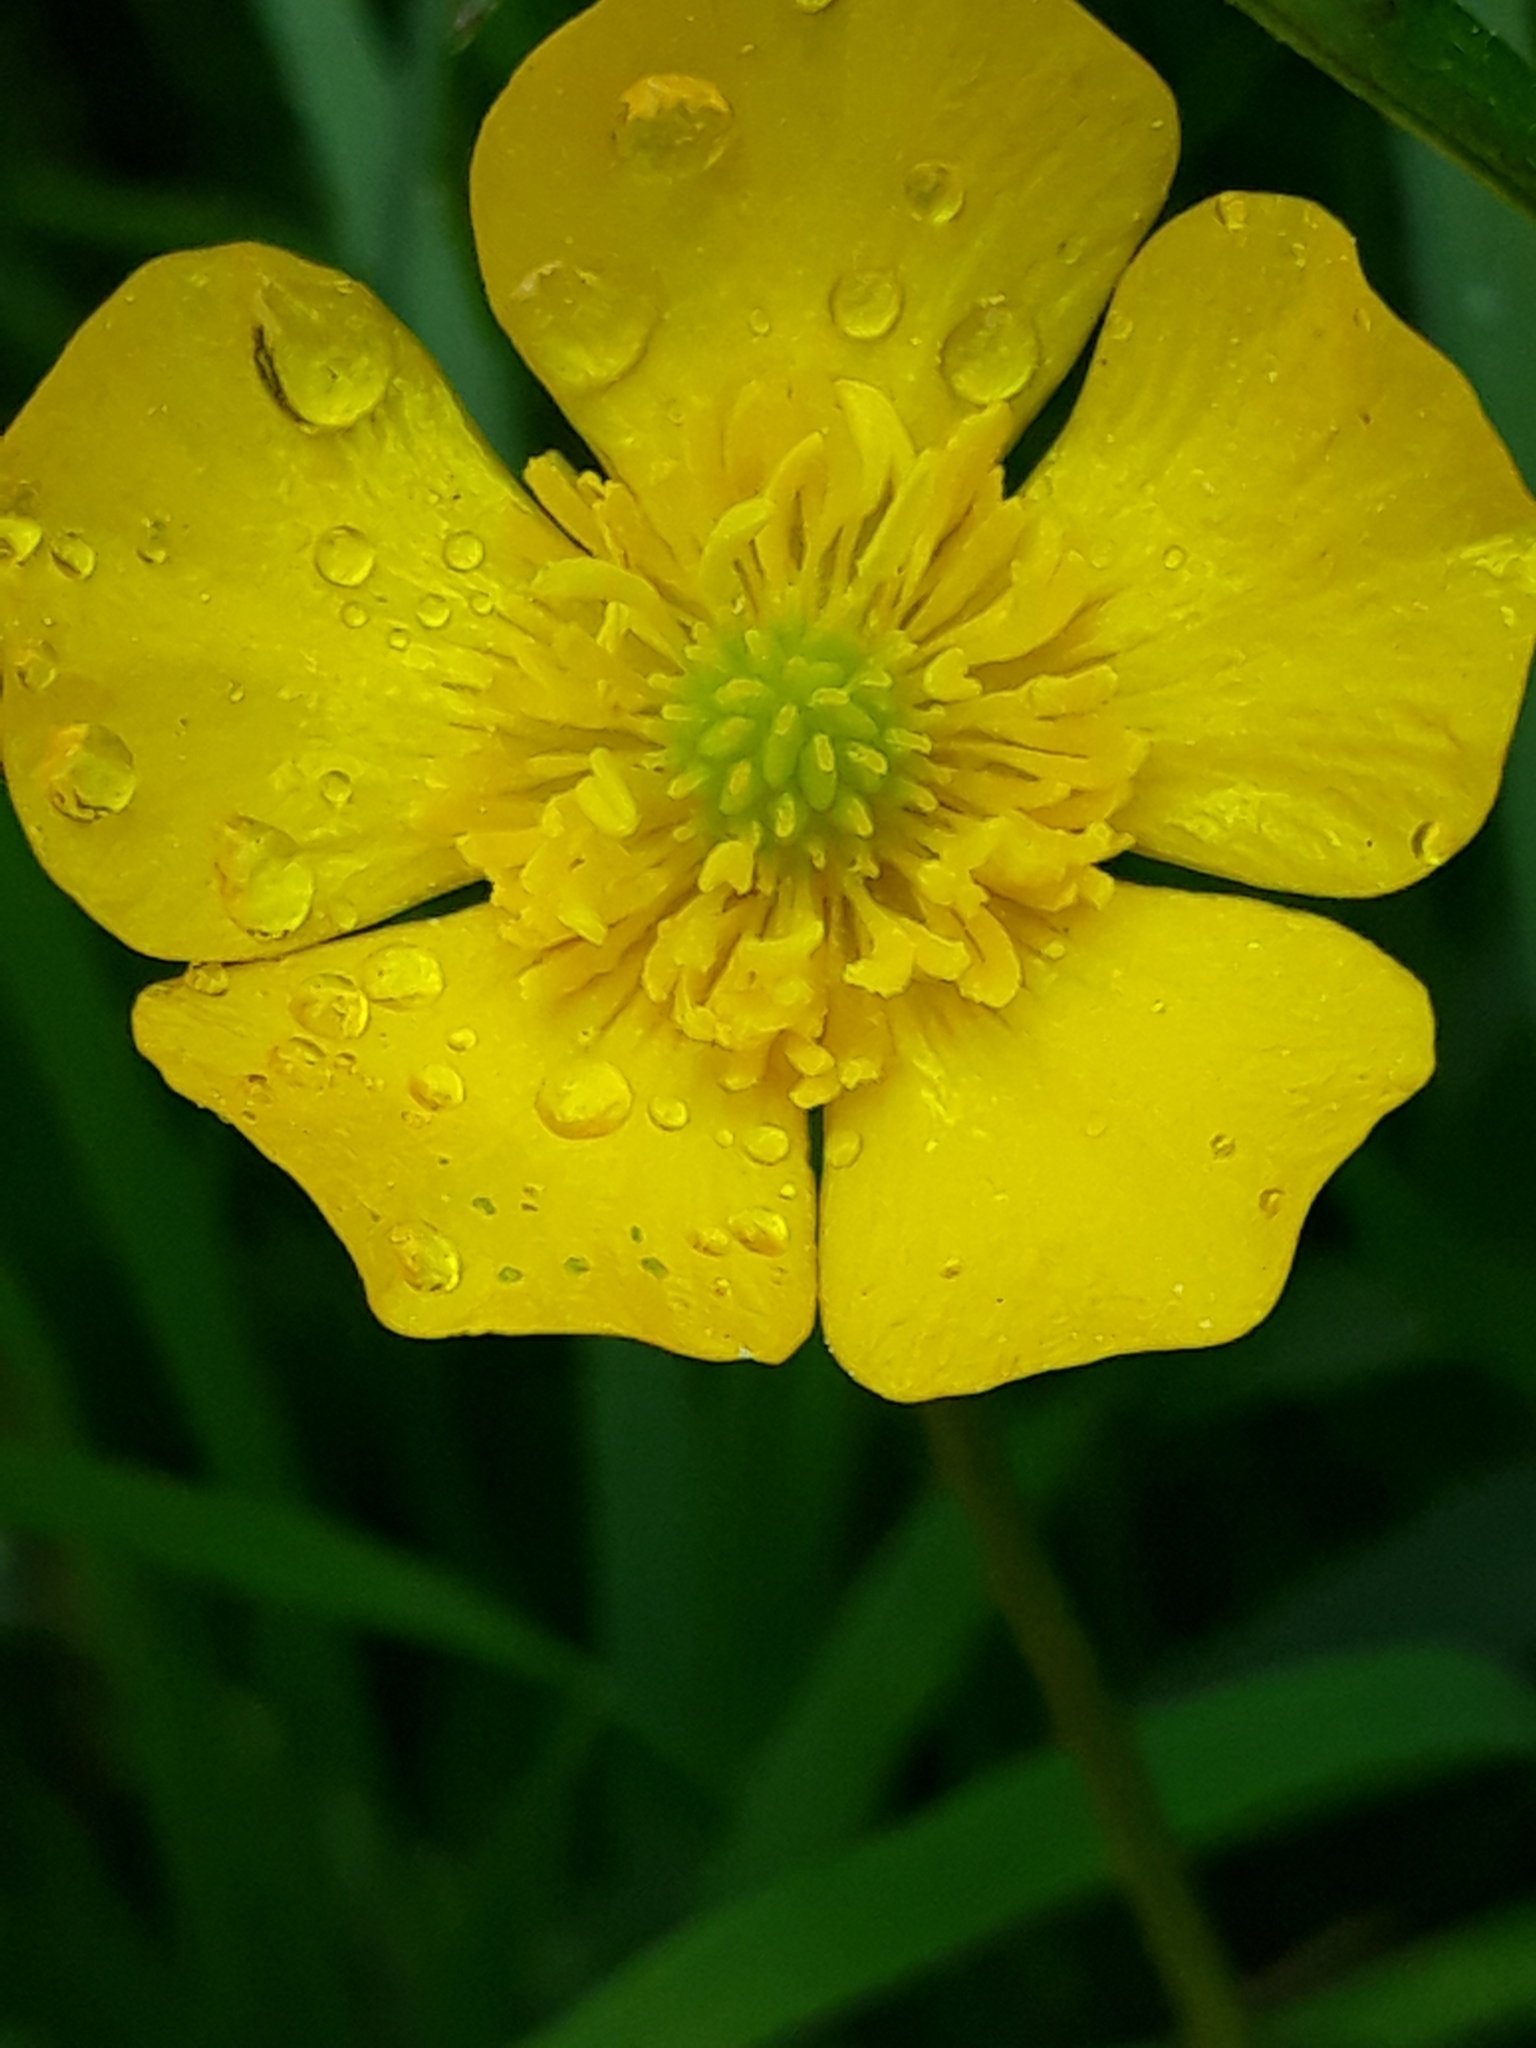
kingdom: Plantae
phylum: Tracheophyta
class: Magnoliopsida
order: Ranunculales
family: Ranunculaceae
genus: Ranunculus
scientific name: Ranunculus acris
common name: Meadow buttercup
